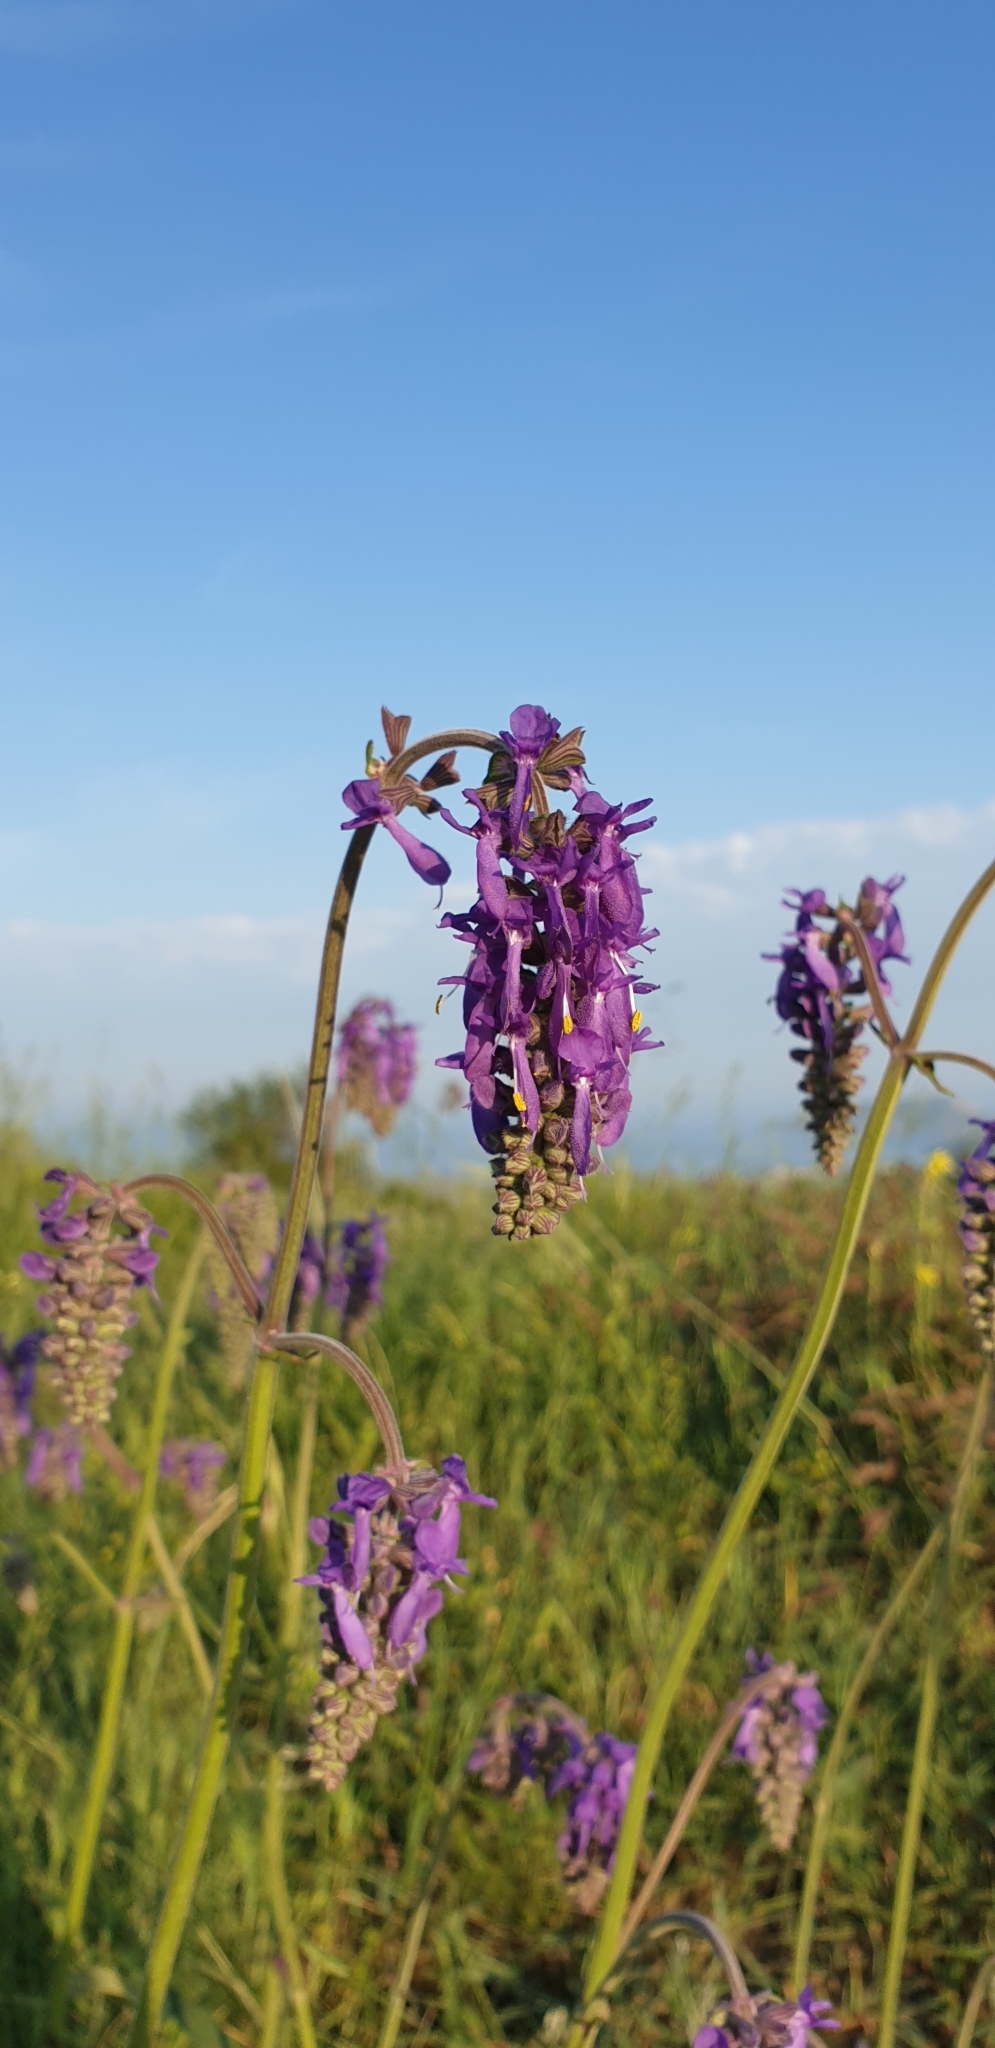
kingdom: Plantae
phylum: Tracheophyta
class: Magnoliopsida
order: Lamiales
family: Lamiaceae
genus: Salvia
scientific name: Salvia nutans
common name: Nodding sage
